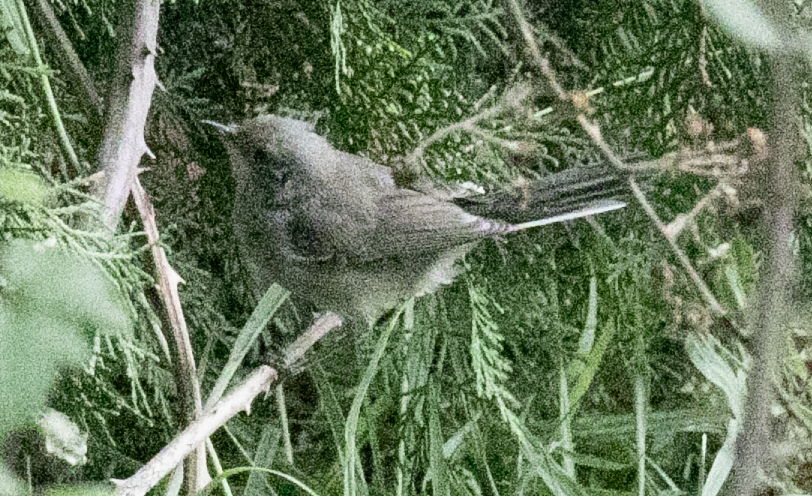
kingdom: Animalia
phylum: Chordata
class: Aves
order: Passeriformes
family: Sylviidae
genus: Curruca
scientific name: Curruca melanocephala
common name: Sardinian warbler
